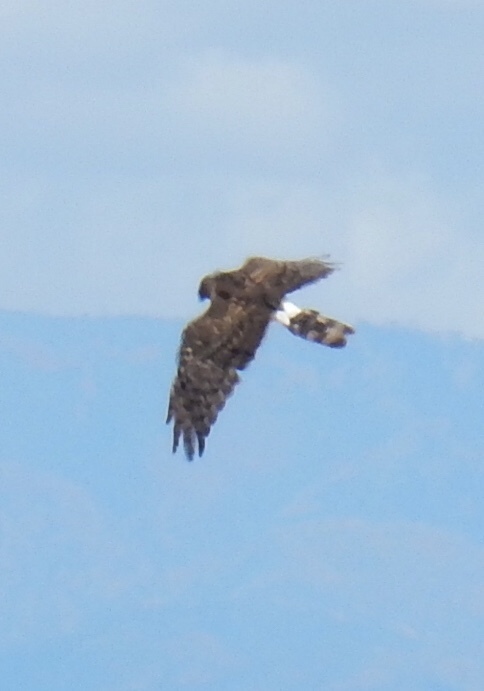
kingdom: Animalia
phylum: Chordata
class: Aves
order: Accipitriformes
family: Accipitridae
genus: Circus
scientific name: Circus cyaneus
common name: Hen harrier
